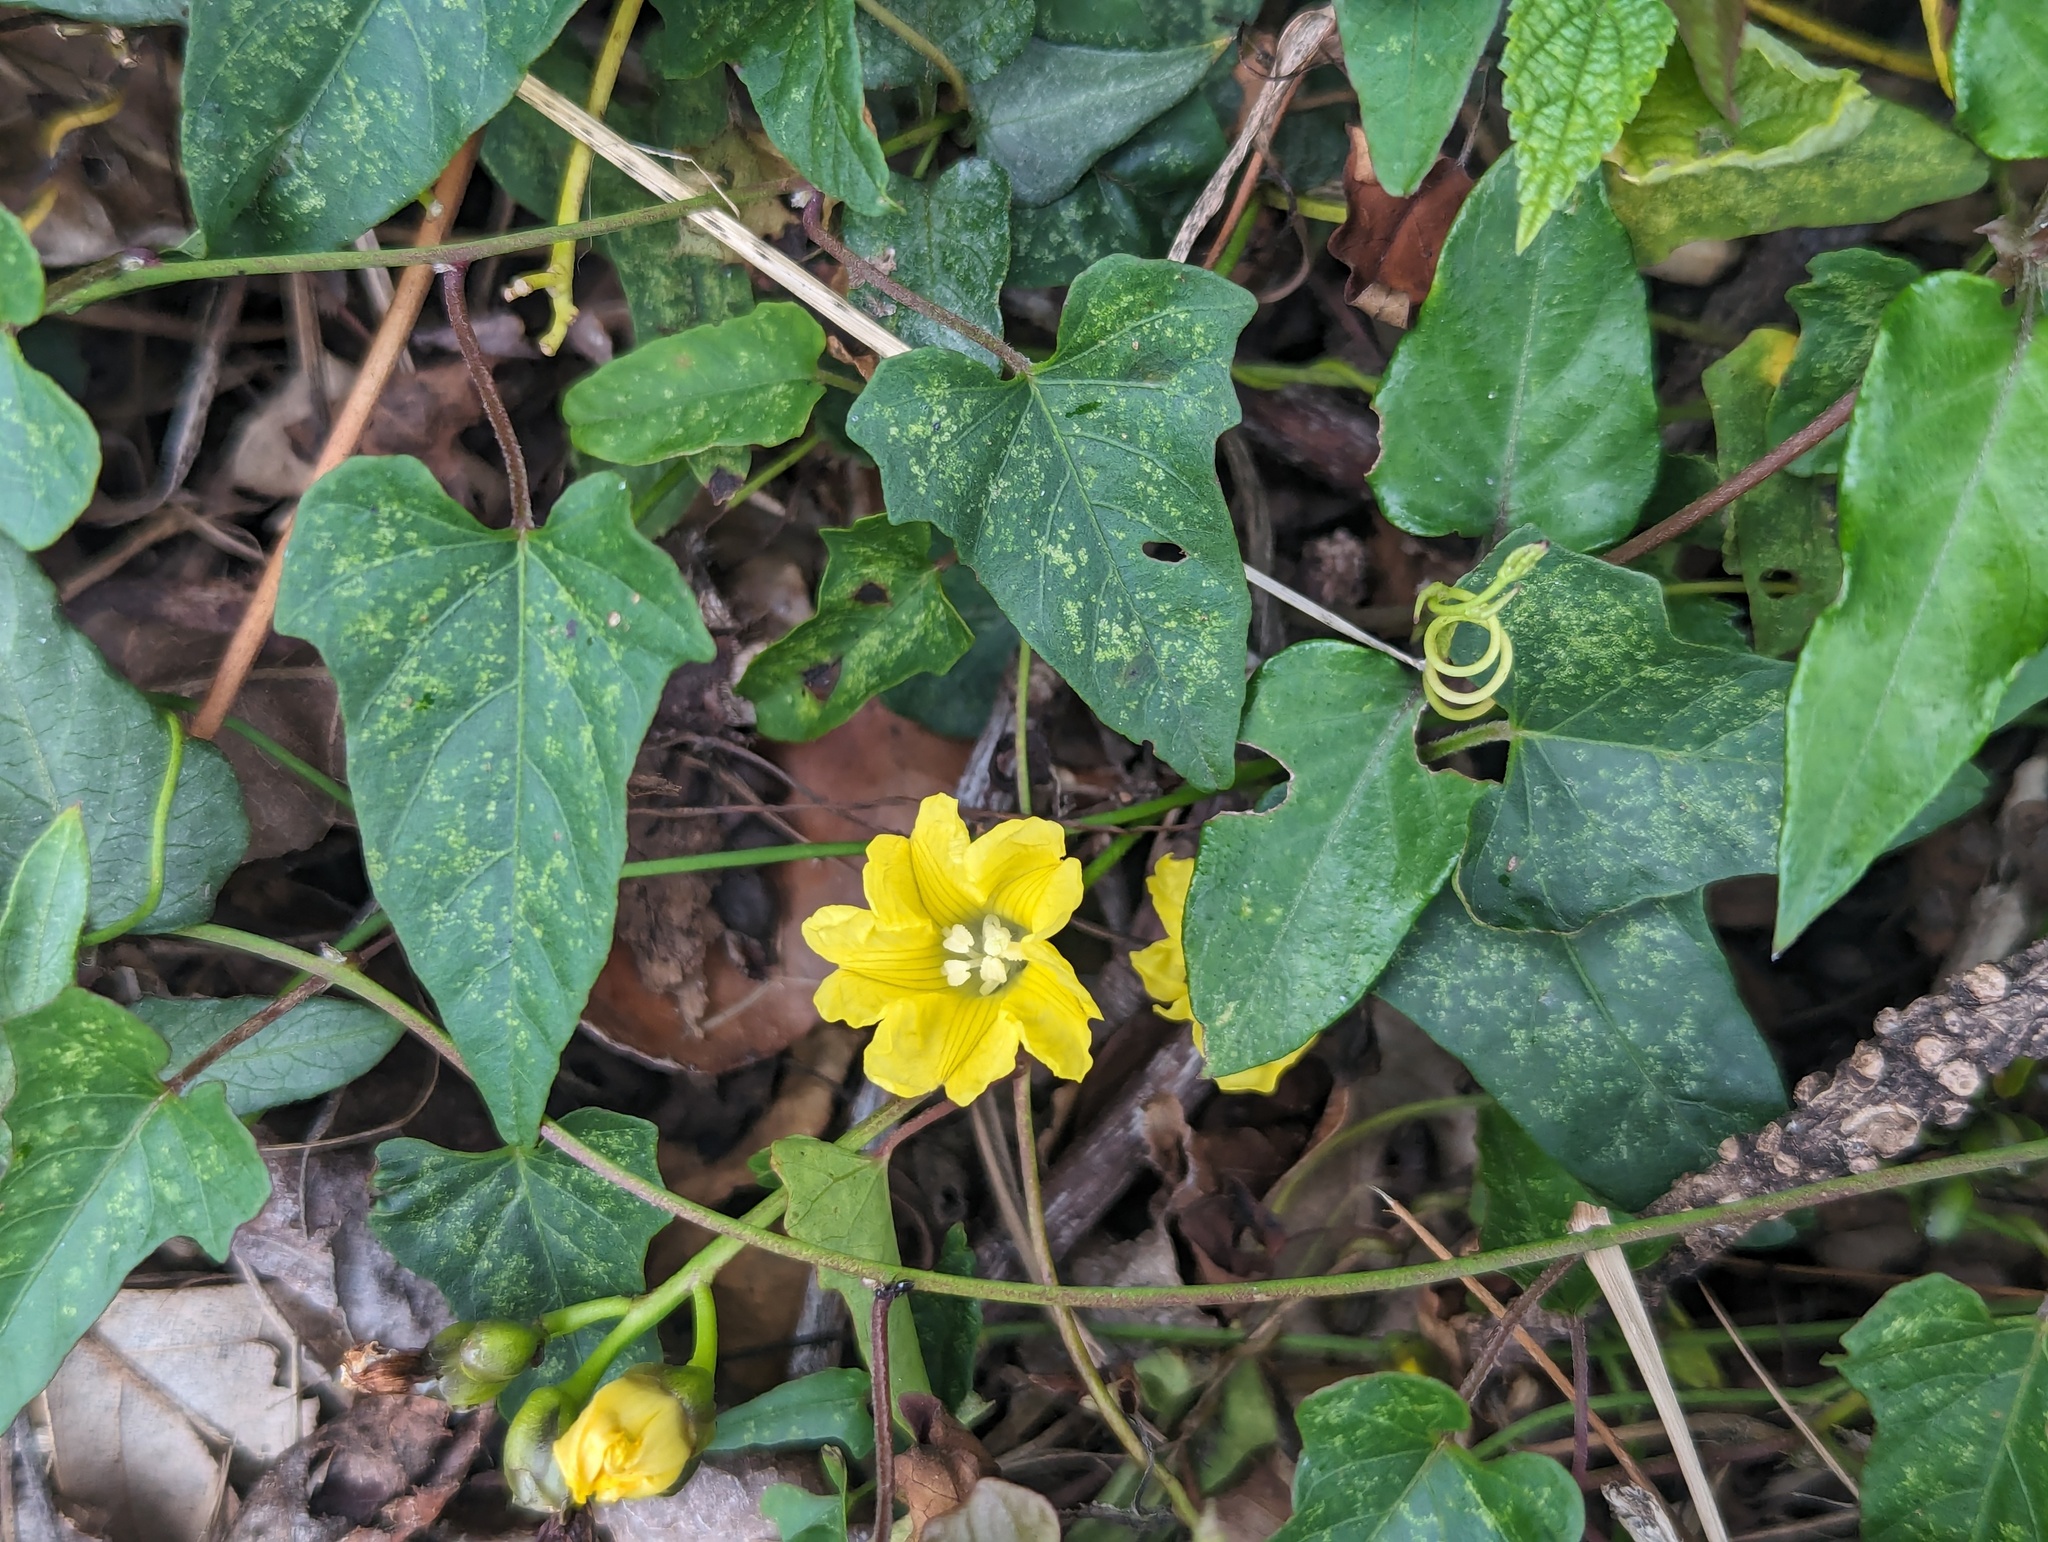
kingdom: Plantae
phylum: Tracheophyta
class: Magnoliopsida
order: Solanales
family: Convolvulaceae
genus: Merremia
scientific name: Merremia gemella
